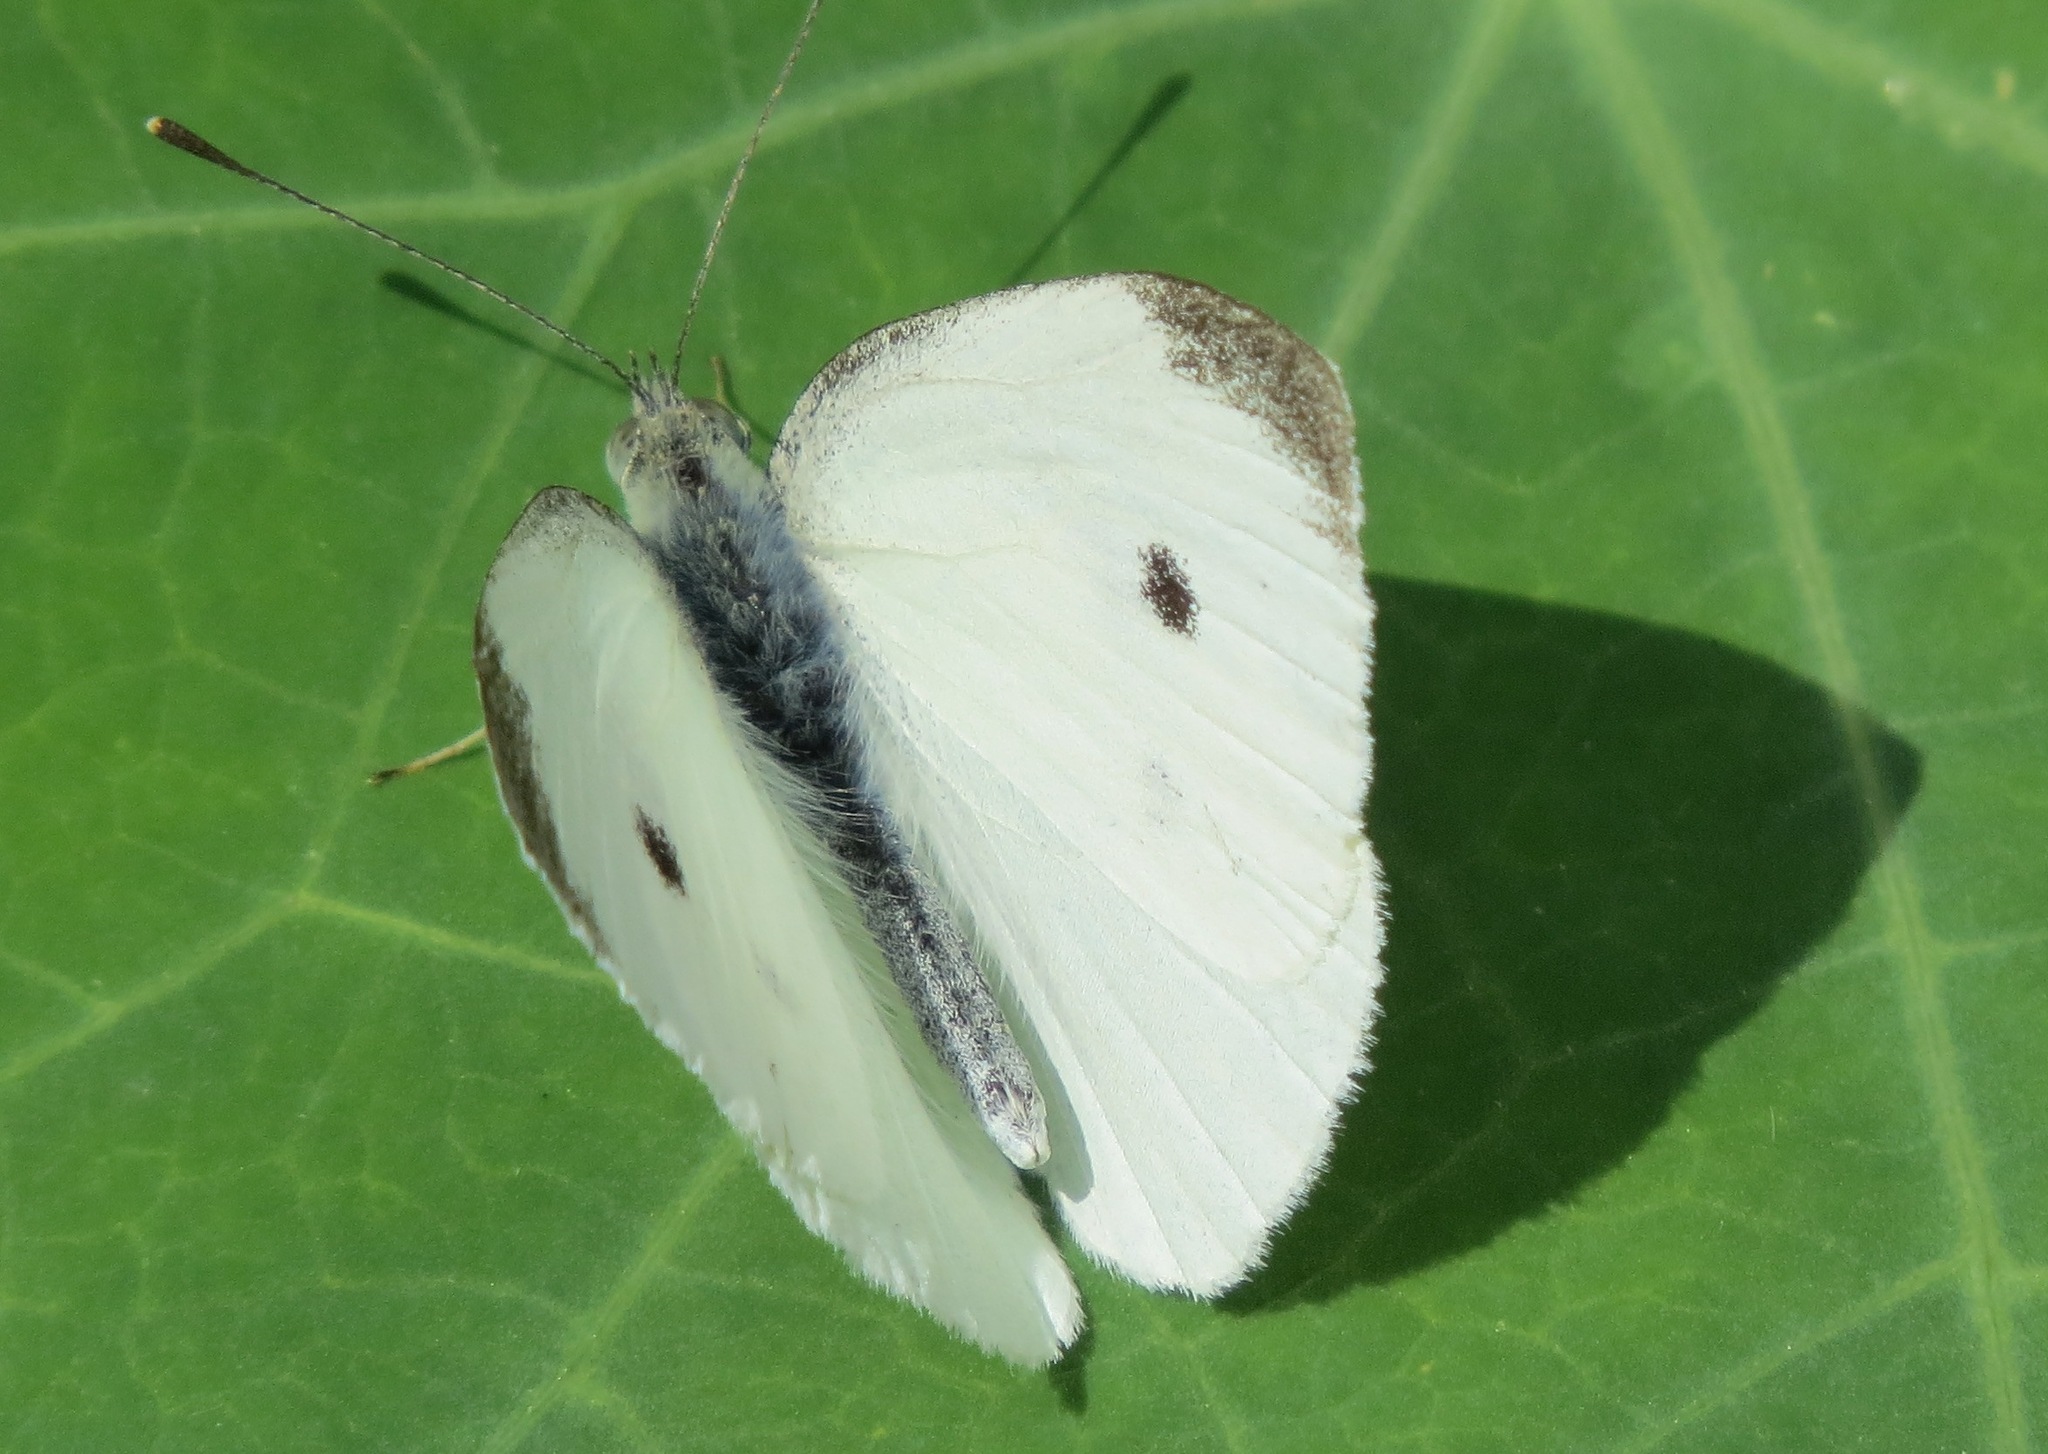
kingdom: Animalia
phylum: Arthropoda
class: Insecta
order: Lepidoptera
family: Pieridae
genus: Pieris
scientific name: Pieris rapae
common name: Small white
